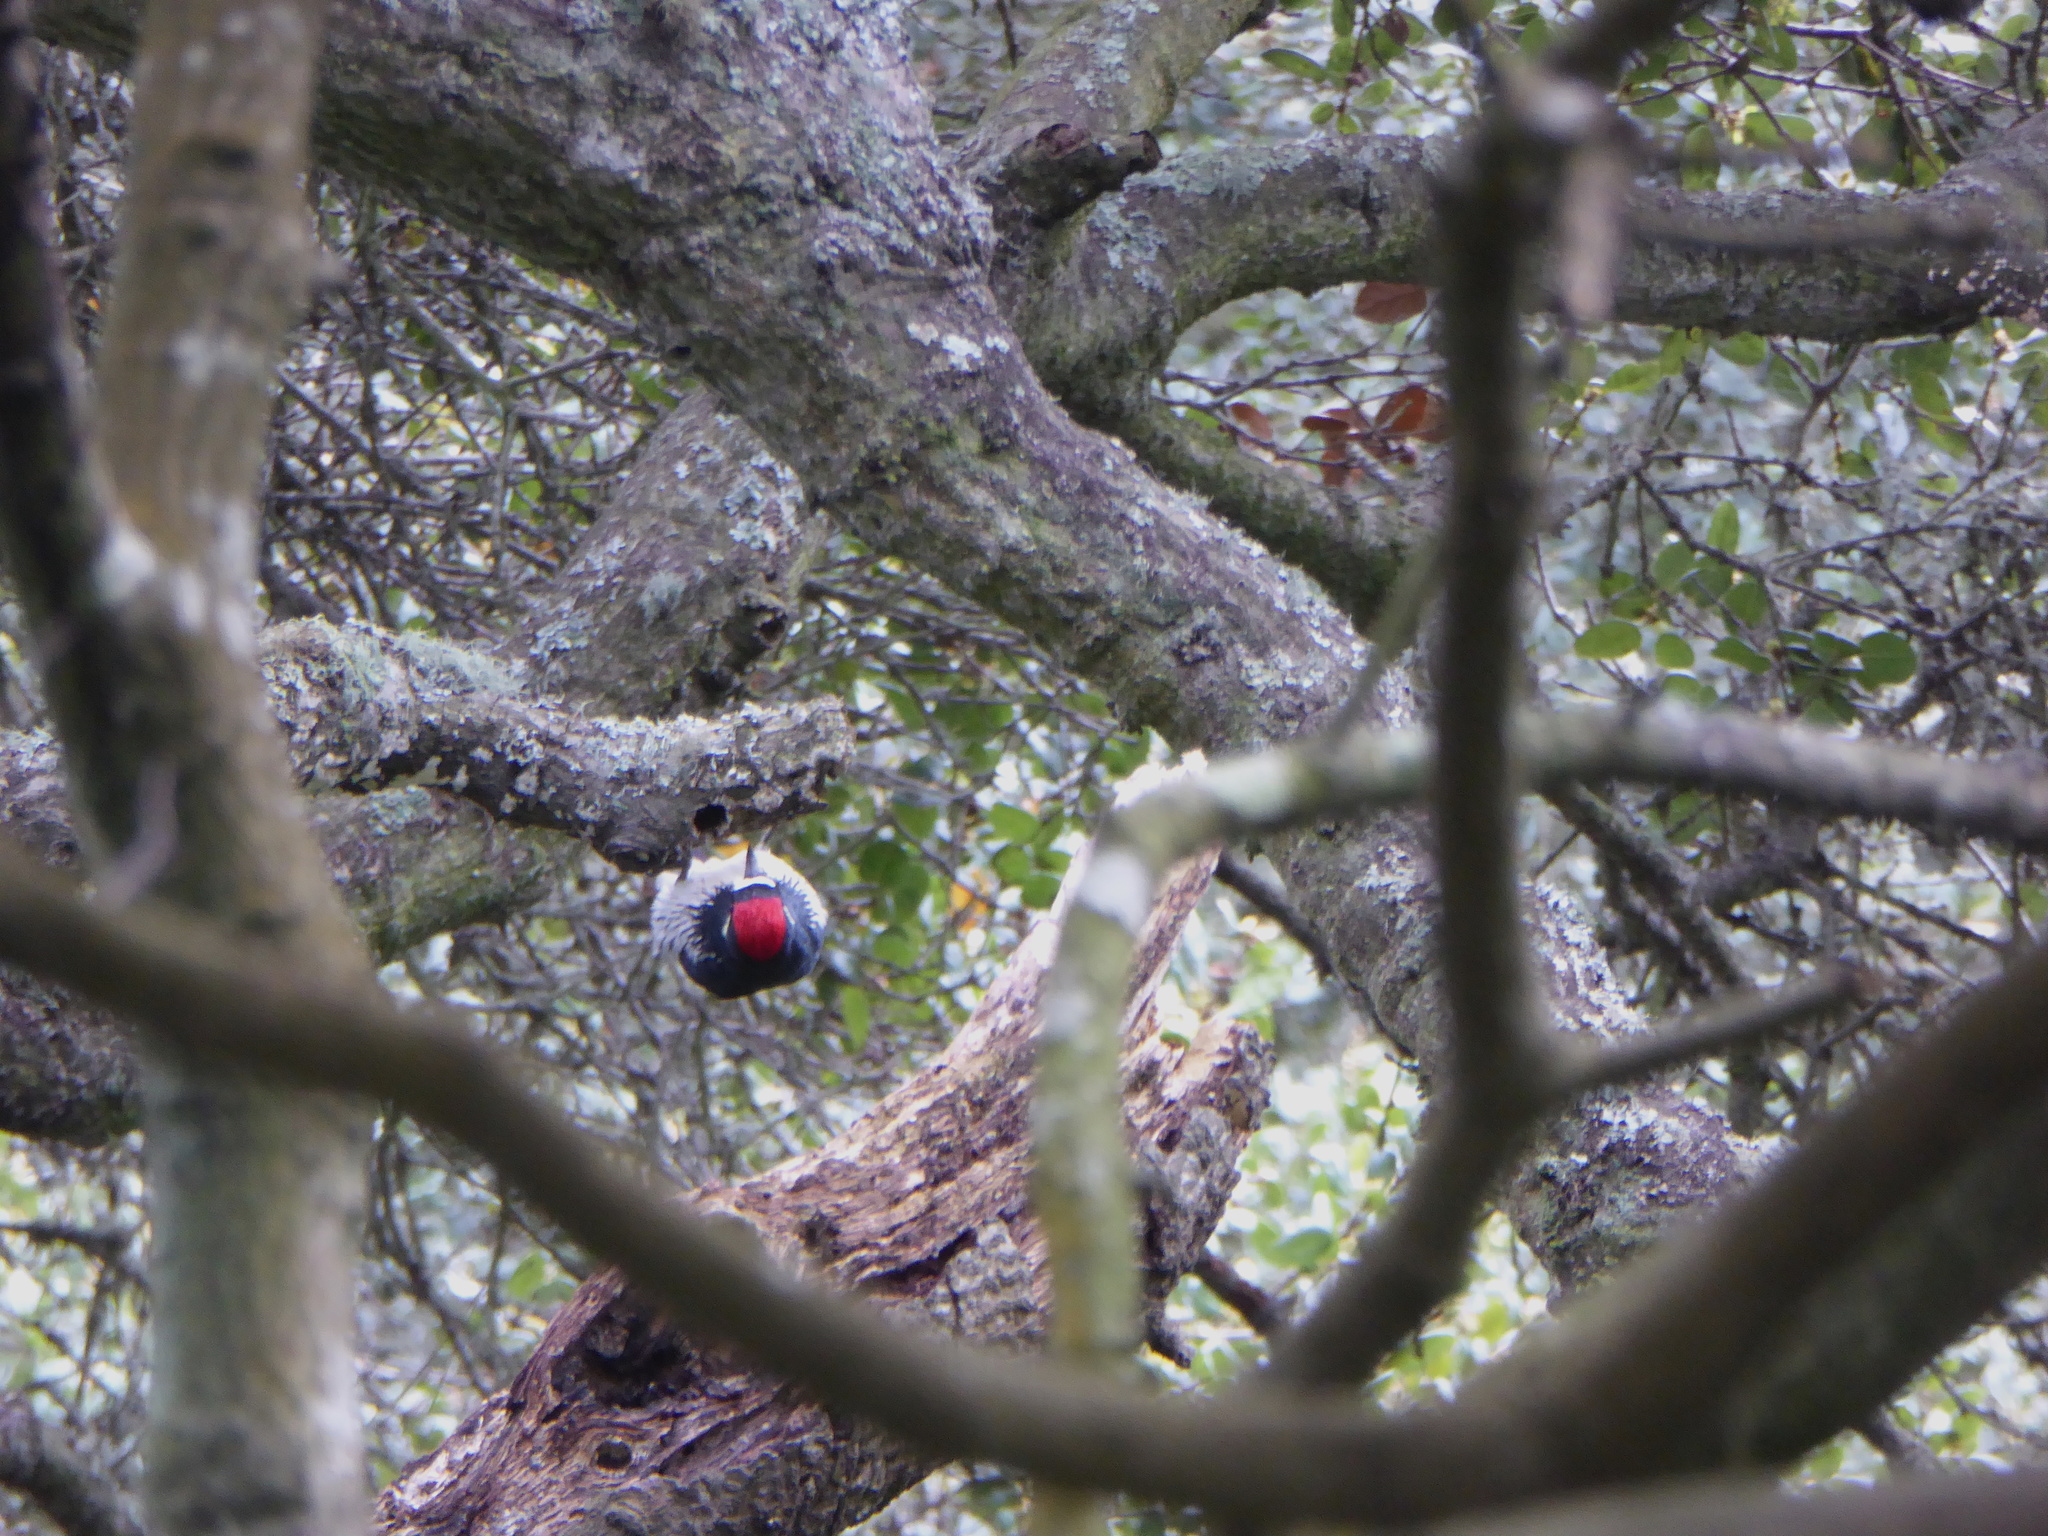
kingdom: Animalia
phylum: Chordata
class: Aves
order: Piciformes
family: Picidae
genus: Melanerpes
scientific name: Melanerpes formicivorus
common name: Acorn woodpecker
